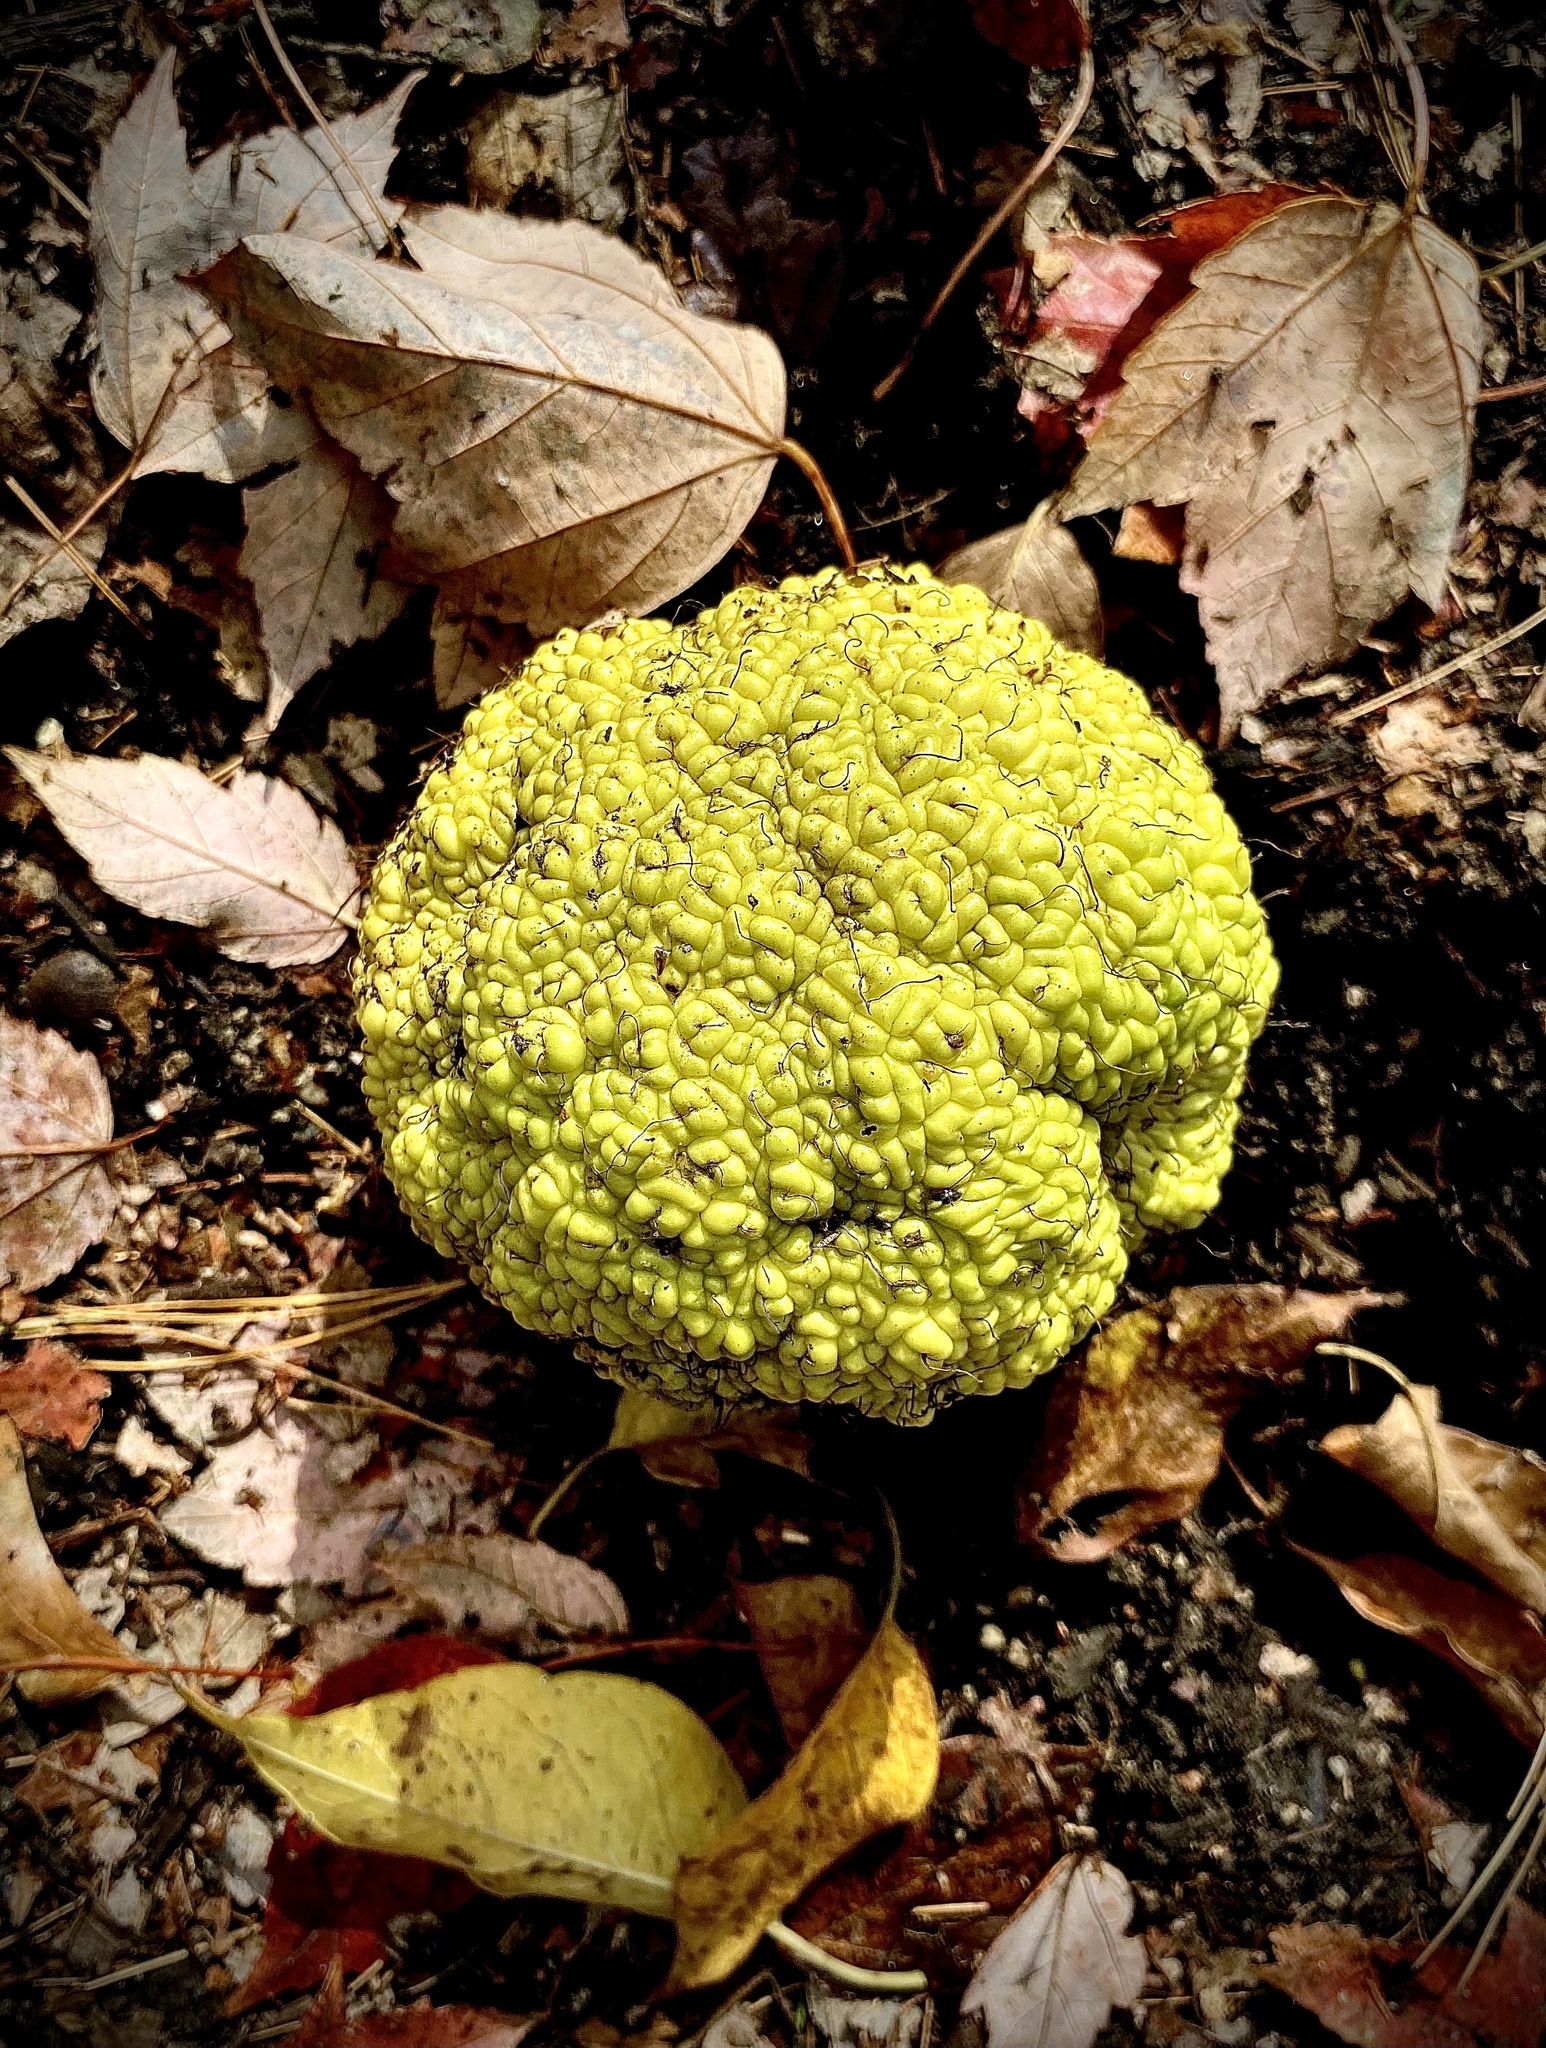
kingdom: Plantae
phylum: Tracheophyta
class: Magnoliopsida
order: Rosales
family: Moraceae
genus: Maclura
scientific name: Maclura pomifera
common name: Osage-orange
